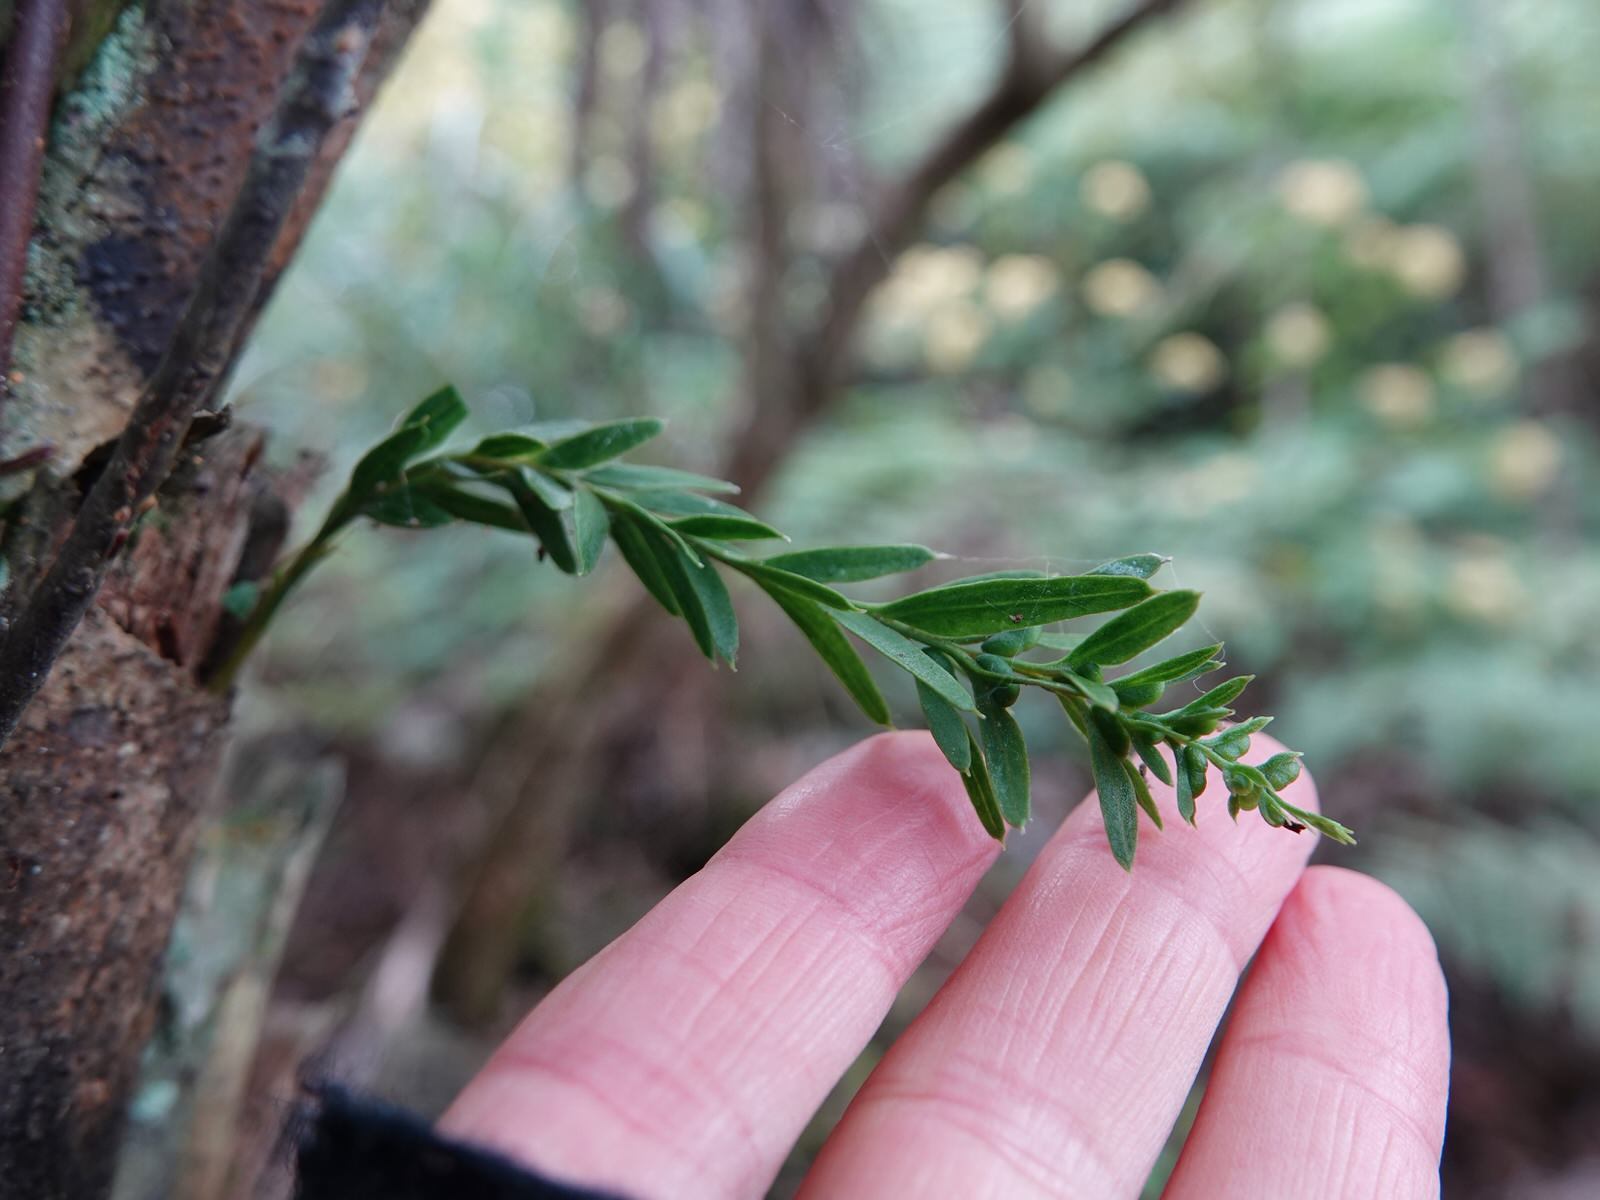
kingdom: Plantae
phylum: Tracheophyta
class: Polypodiopsida
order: Psilotales
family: Psilotaceae
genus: Tmesipteris
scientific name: Tmesipteris elongata
